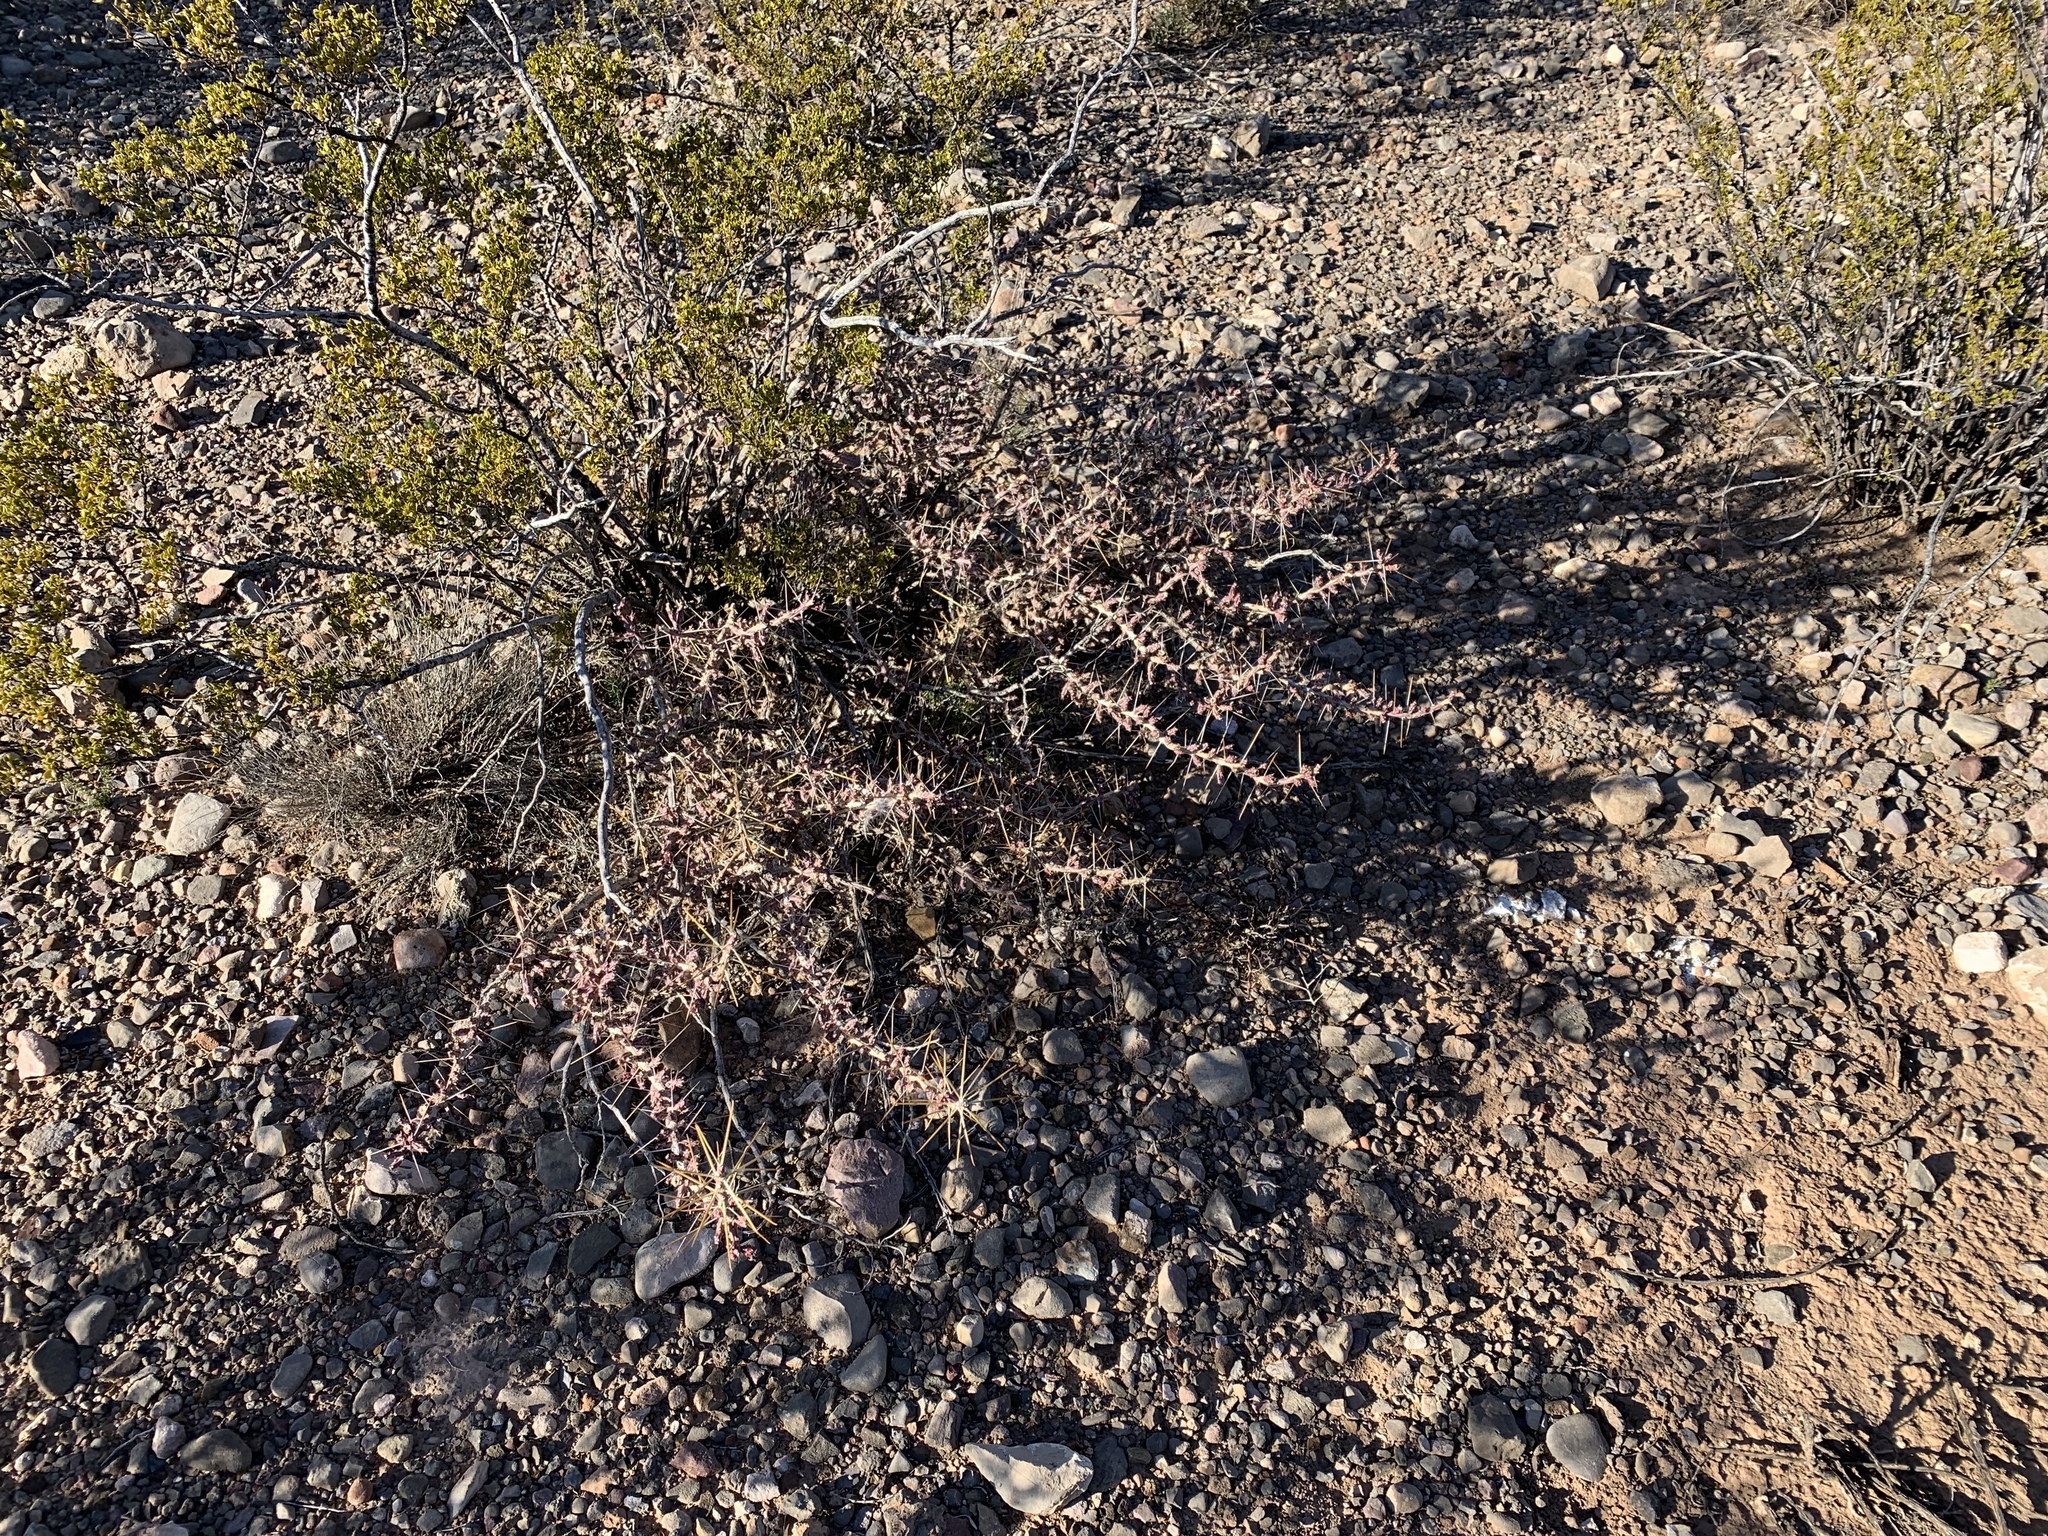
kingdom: Plantae
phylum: Tracheophyta
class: Magnoliopsida
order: Caryophyllales
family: Cactaceae
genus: Cylindropuntia
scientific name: Cylindropuntia leptocaulis
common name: Christmas cactus
